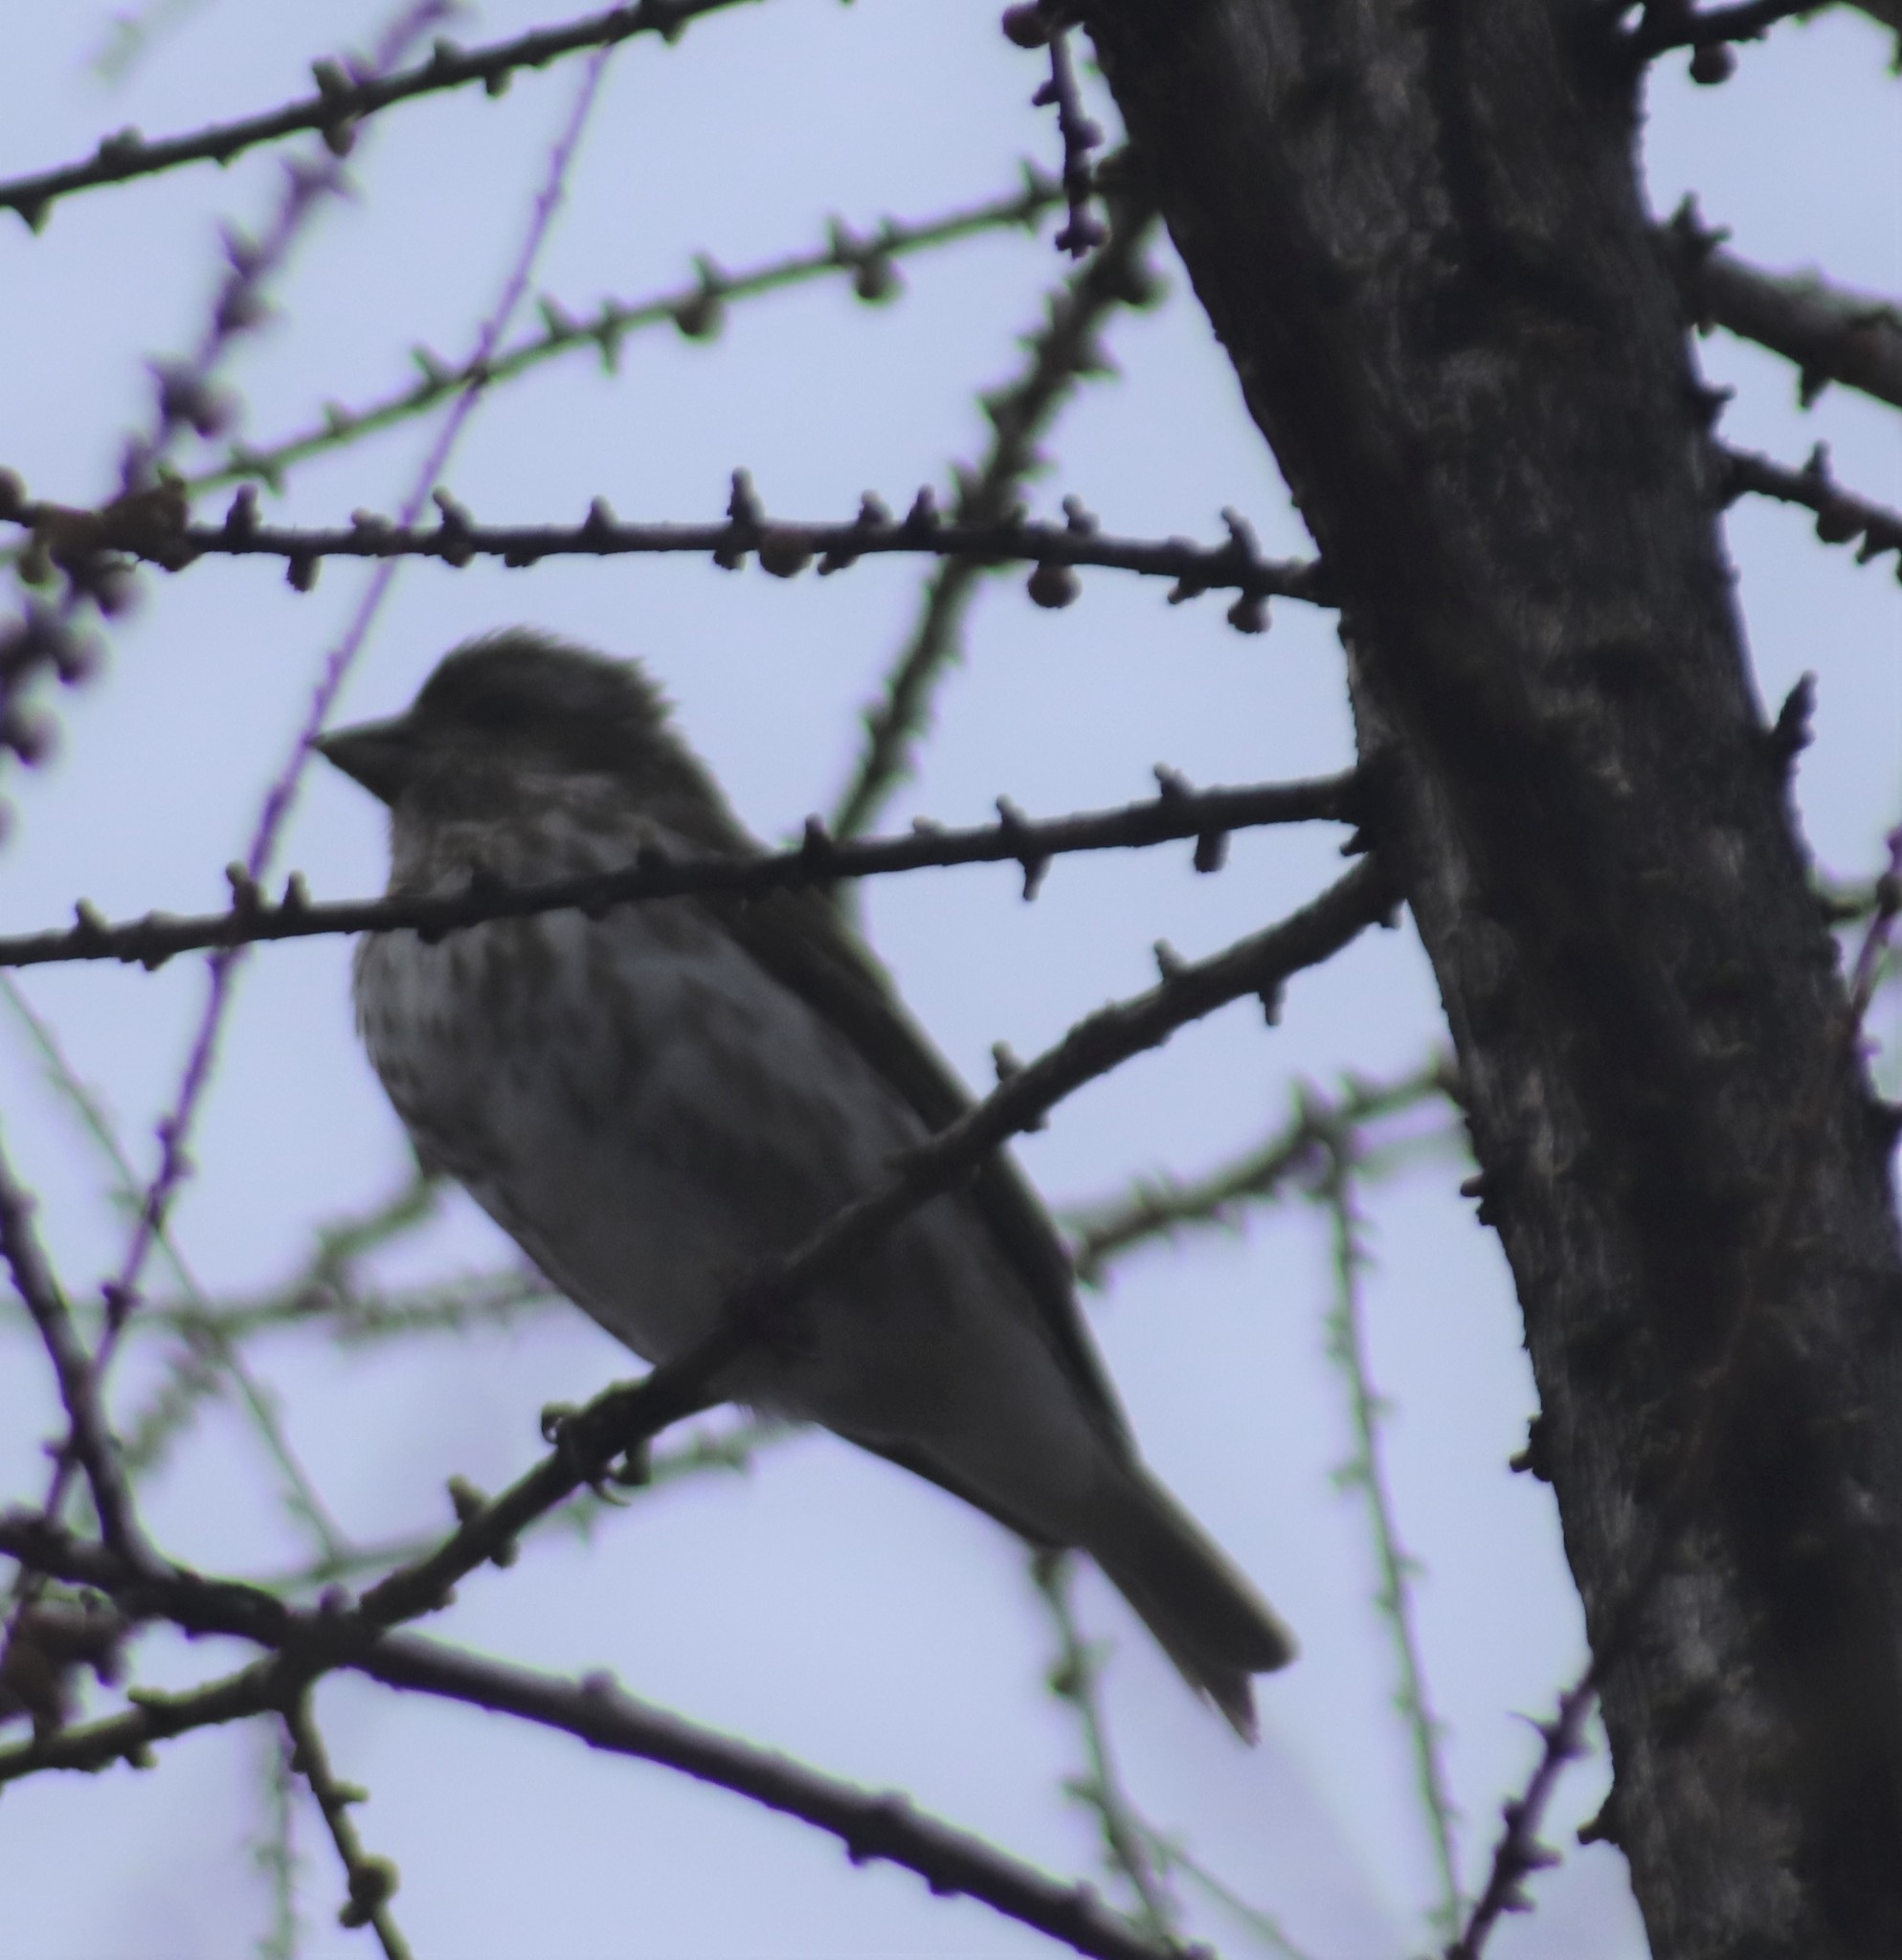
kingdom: Animalia
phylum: Chordata
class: Aves
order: Passeriformes
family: Fringillidae
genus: Haemorhous
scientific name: Haemorhous purpureus
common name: Purple finch
